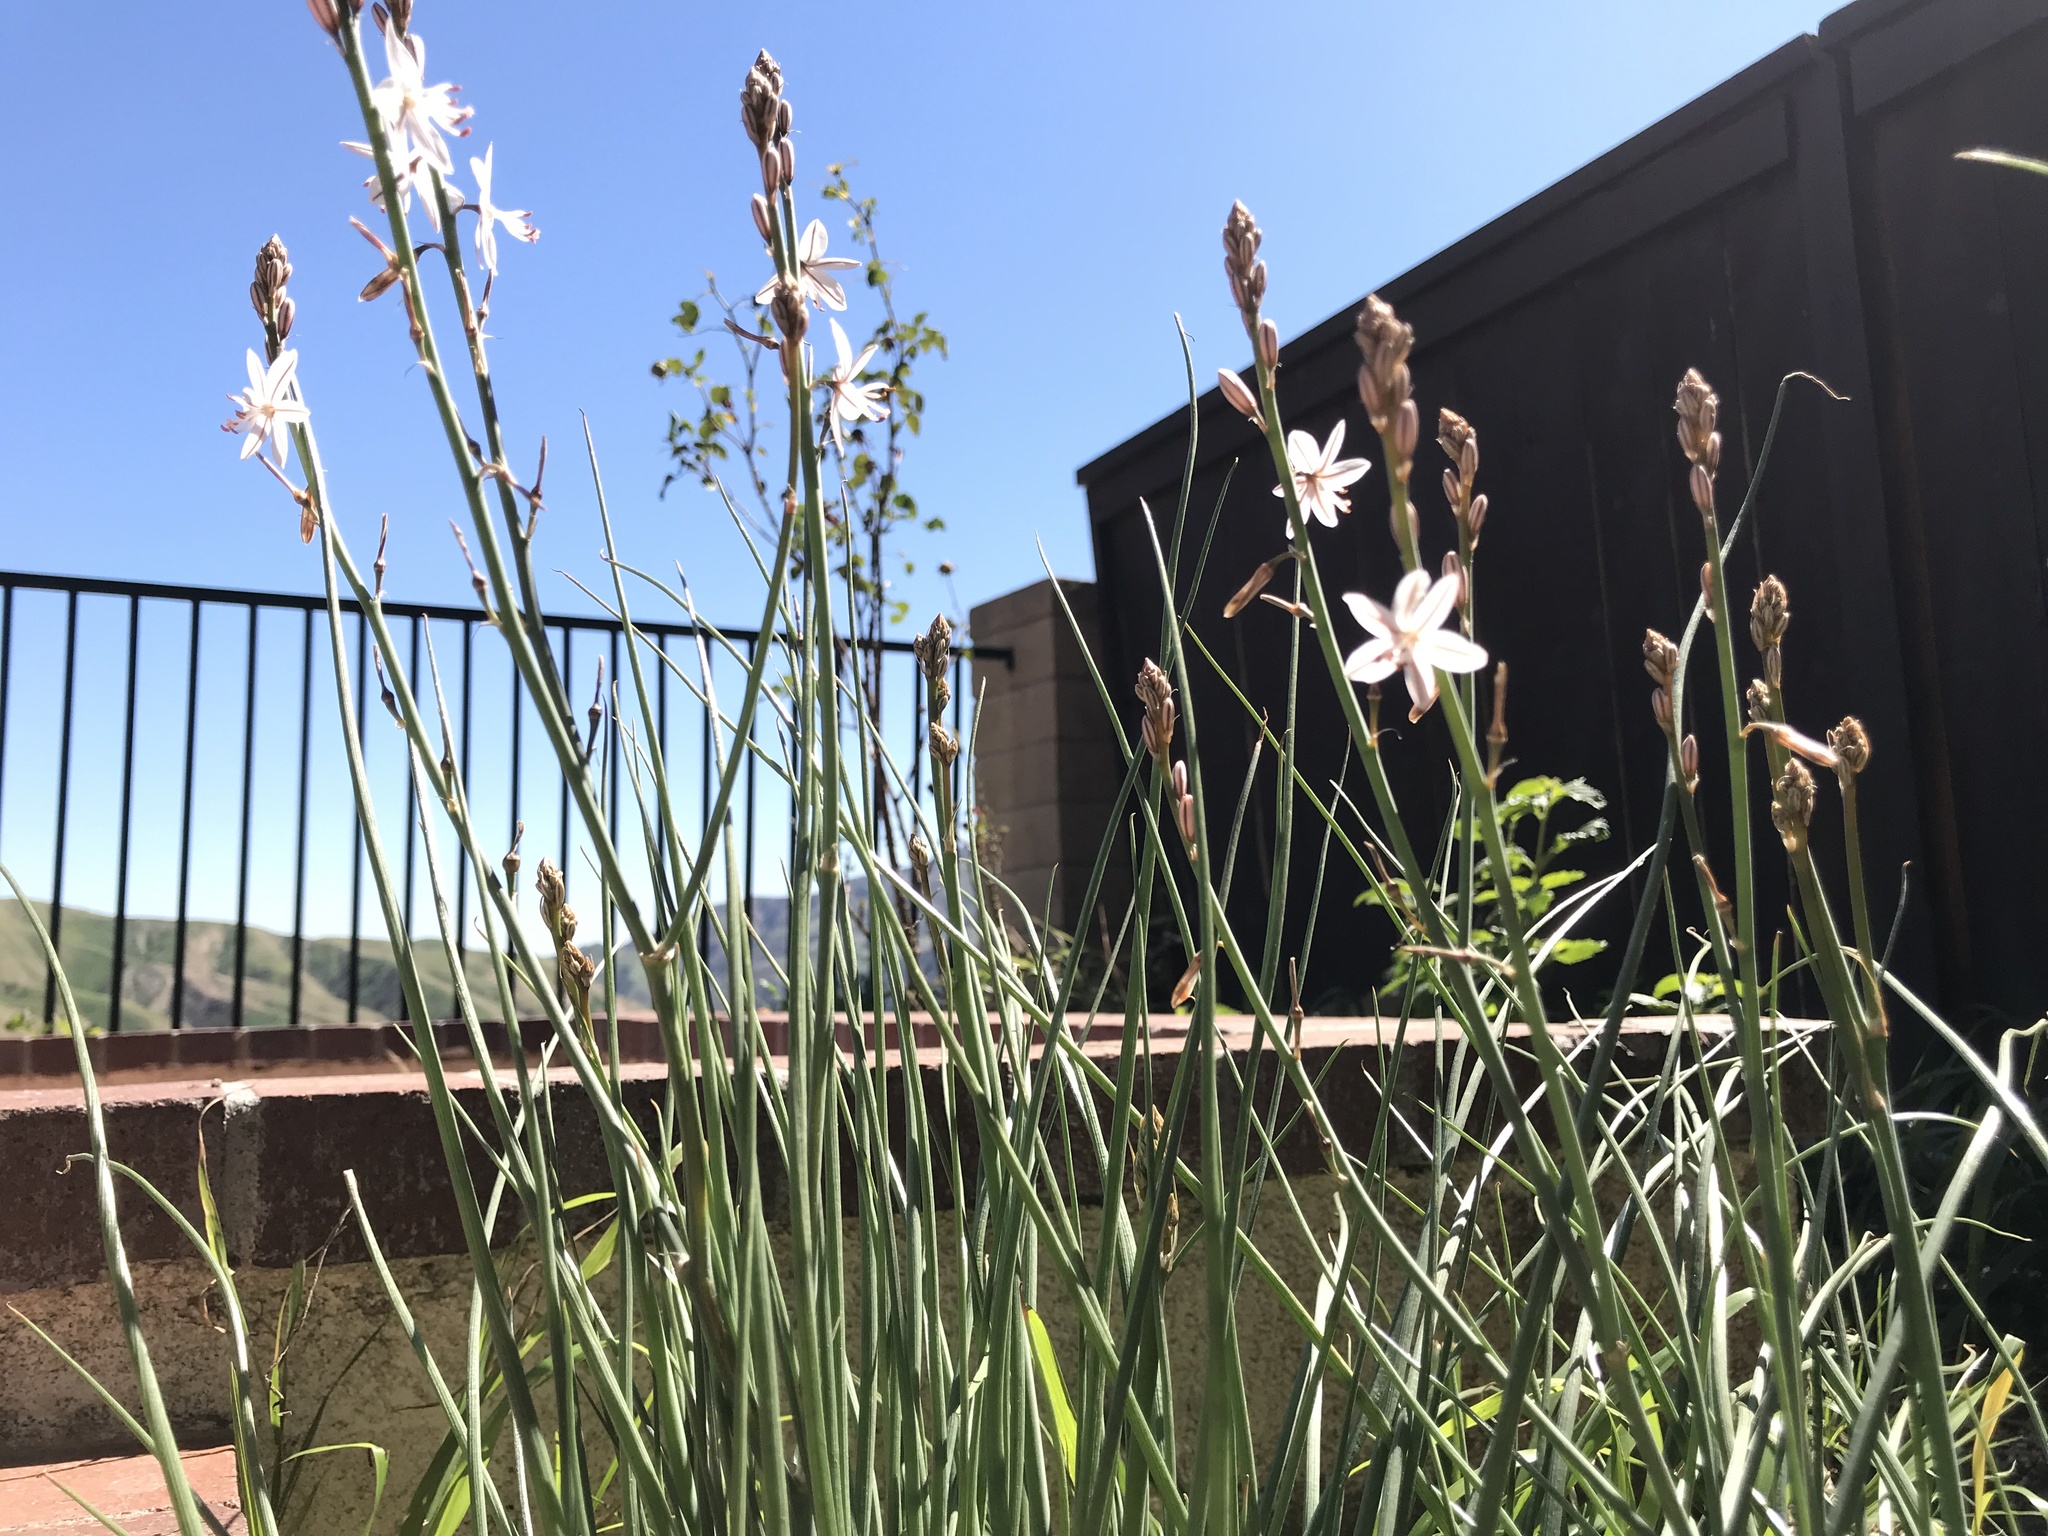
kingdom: Plantae
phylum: Tracheophyta
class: Liliopsida
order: Asparagales
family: Asphodelaceae
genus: Asphodelus
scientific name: Asphodelus fistulosus
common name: Onionweed
